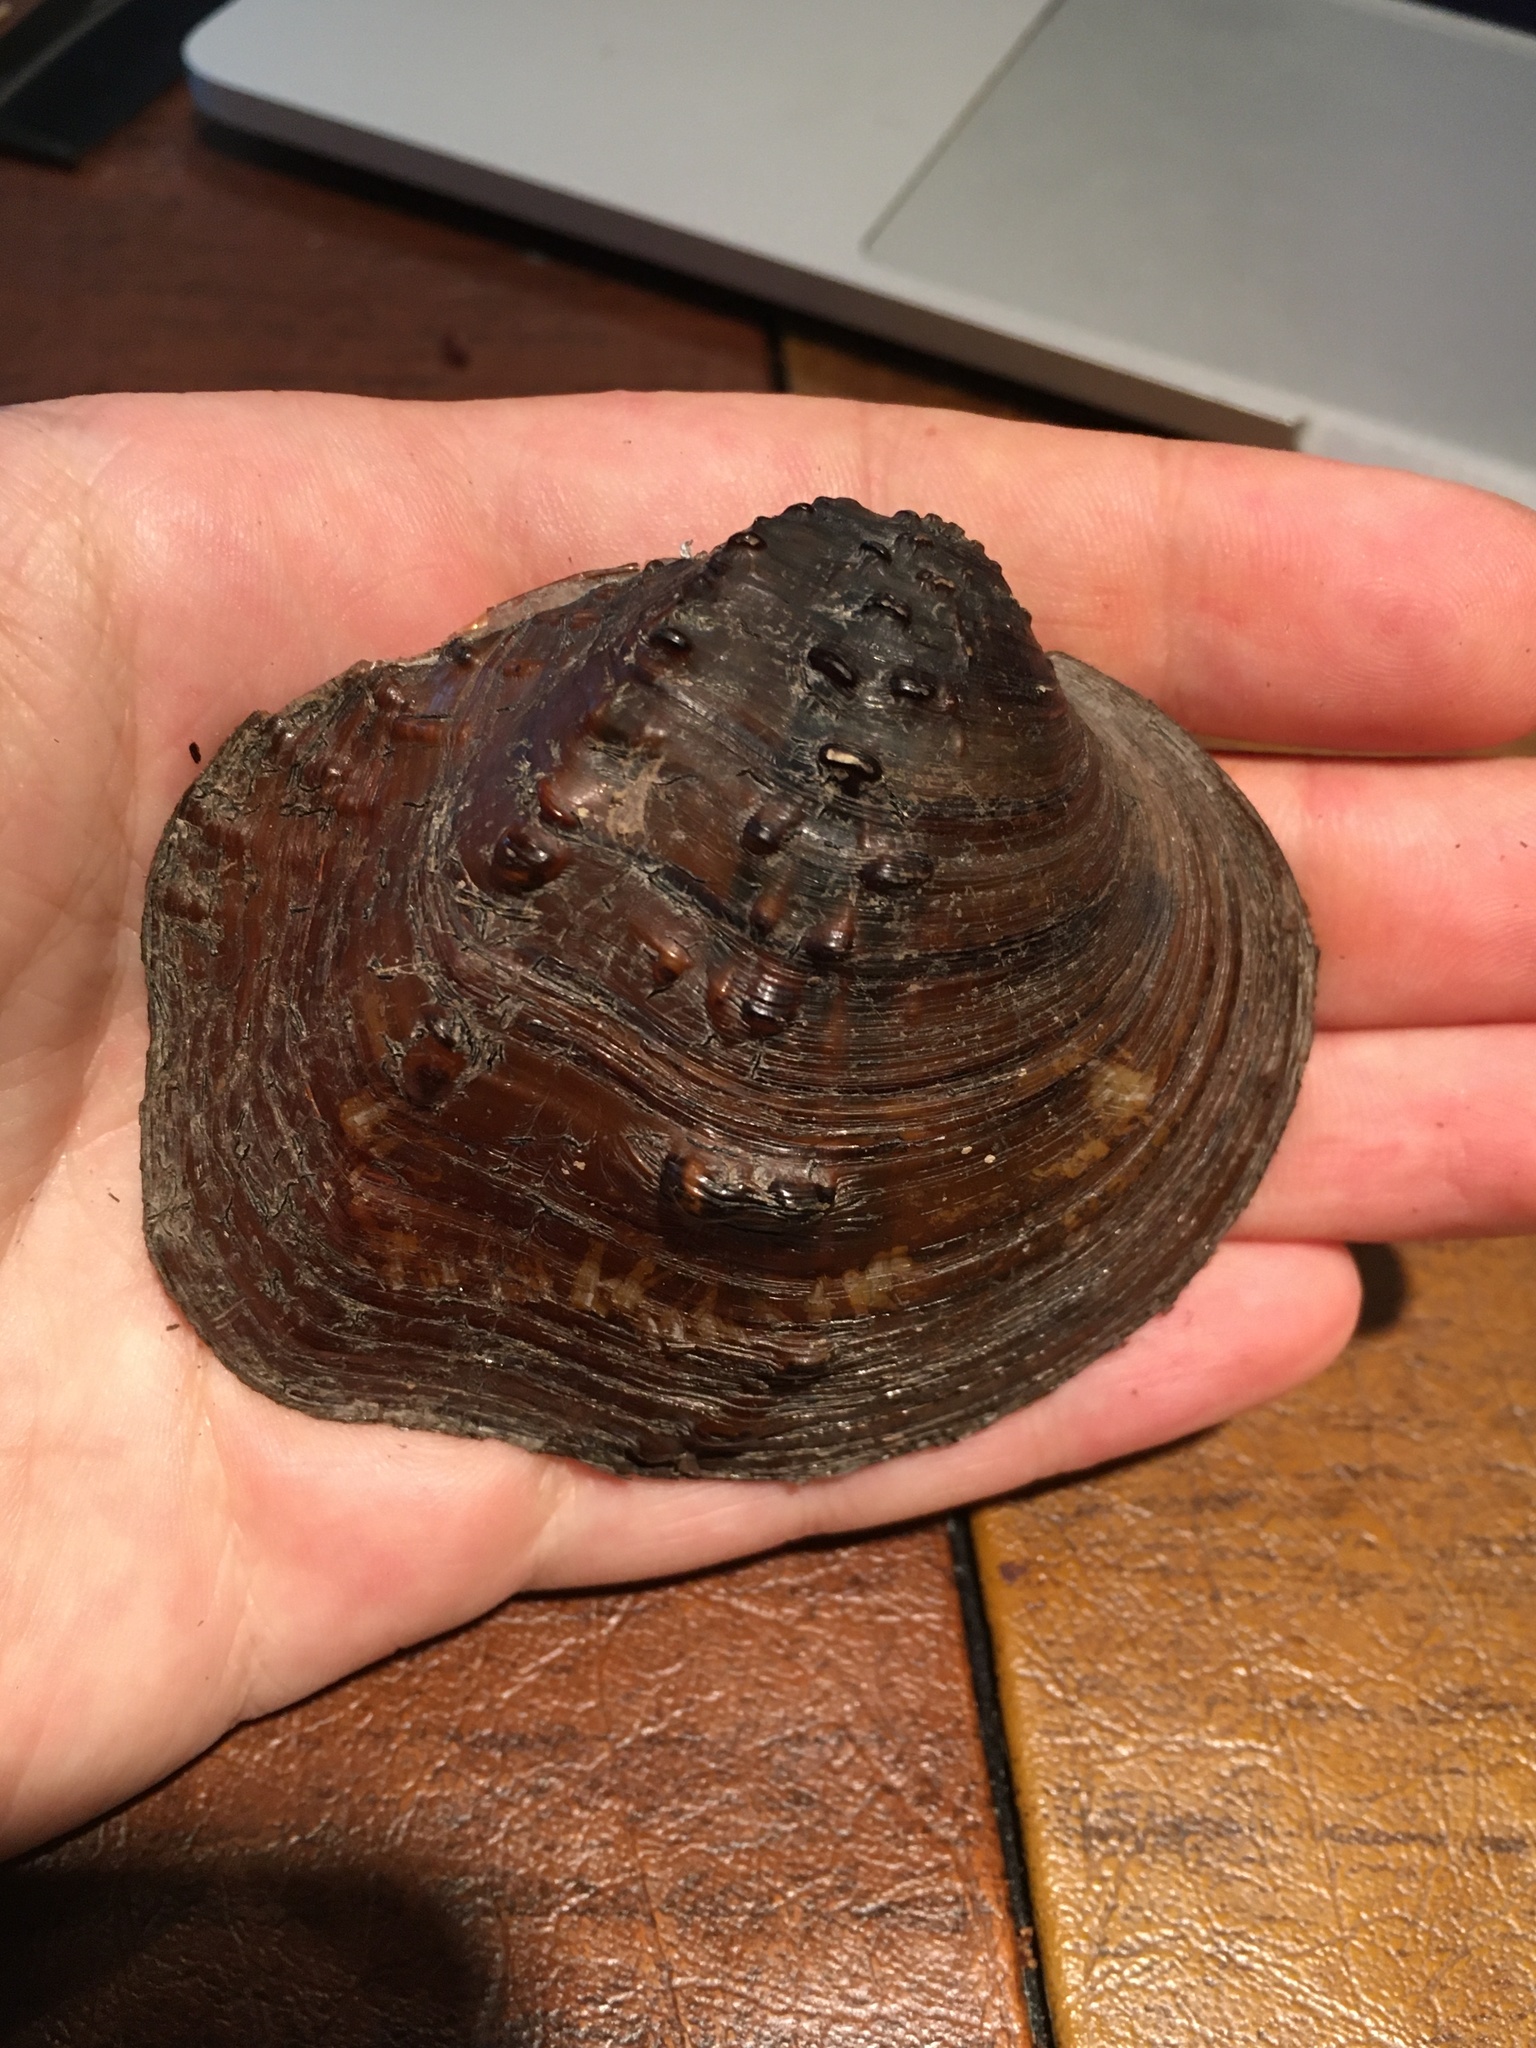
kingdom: Animalia
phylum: Mollusca
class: Bivalvia
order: Unionida
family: Unionidae
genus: Quadrula
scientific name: Quadrula quadrula
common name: Mapleleaf
